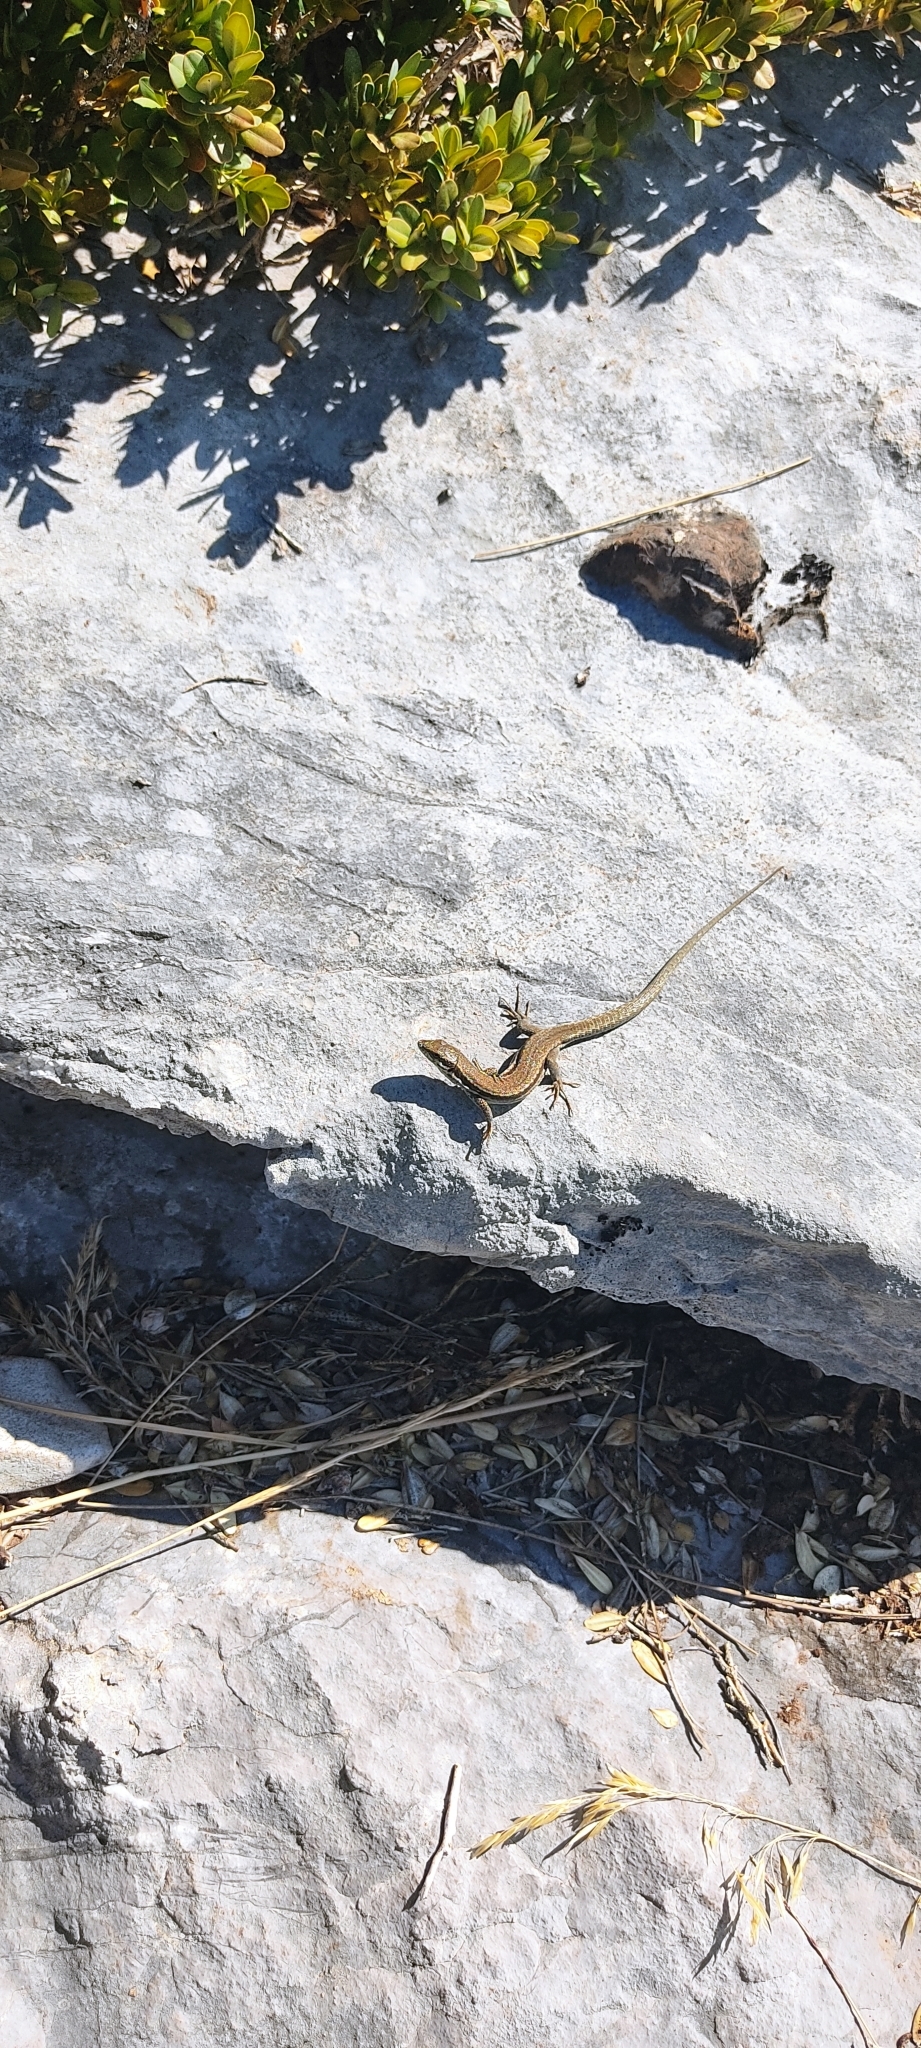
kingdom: Animalia
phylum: Chordata
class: Squamata
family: Lacertidae
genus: Podarcis
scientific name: Podarcis muralis
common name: Common wall lizard
